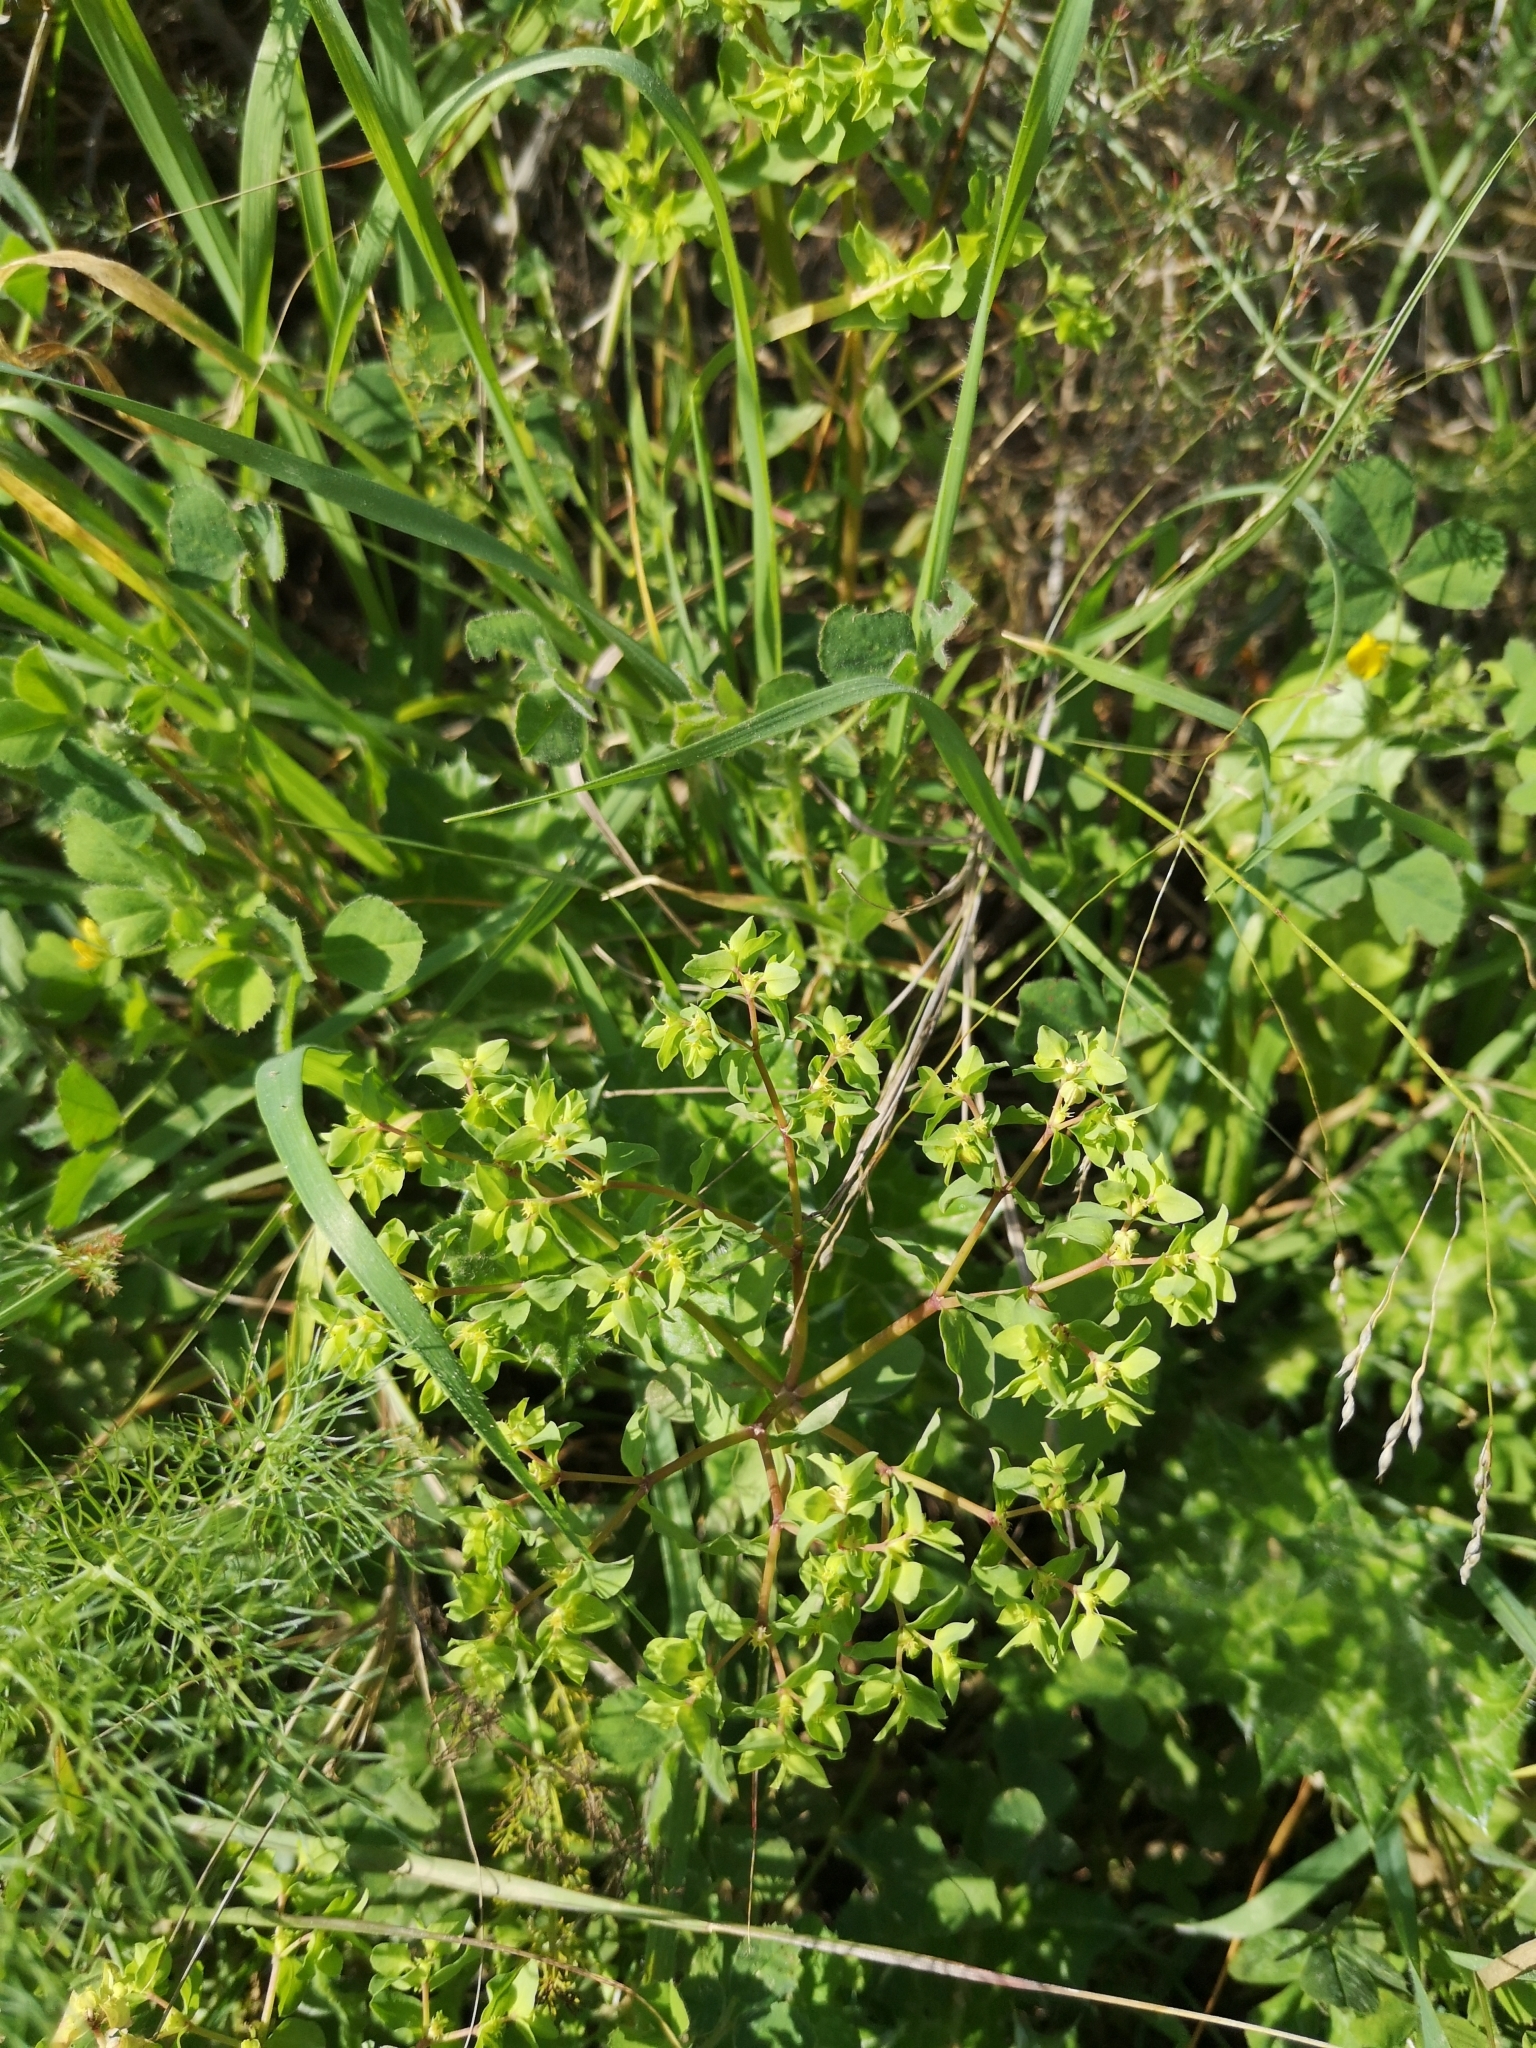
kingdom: Plantae
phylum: Tracheophyta
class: Magnoliopsida
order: Malpighiales
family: Euphorbiaceae
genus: Euphorbia
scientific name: Euphorbia peplus
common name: Petty spurge
